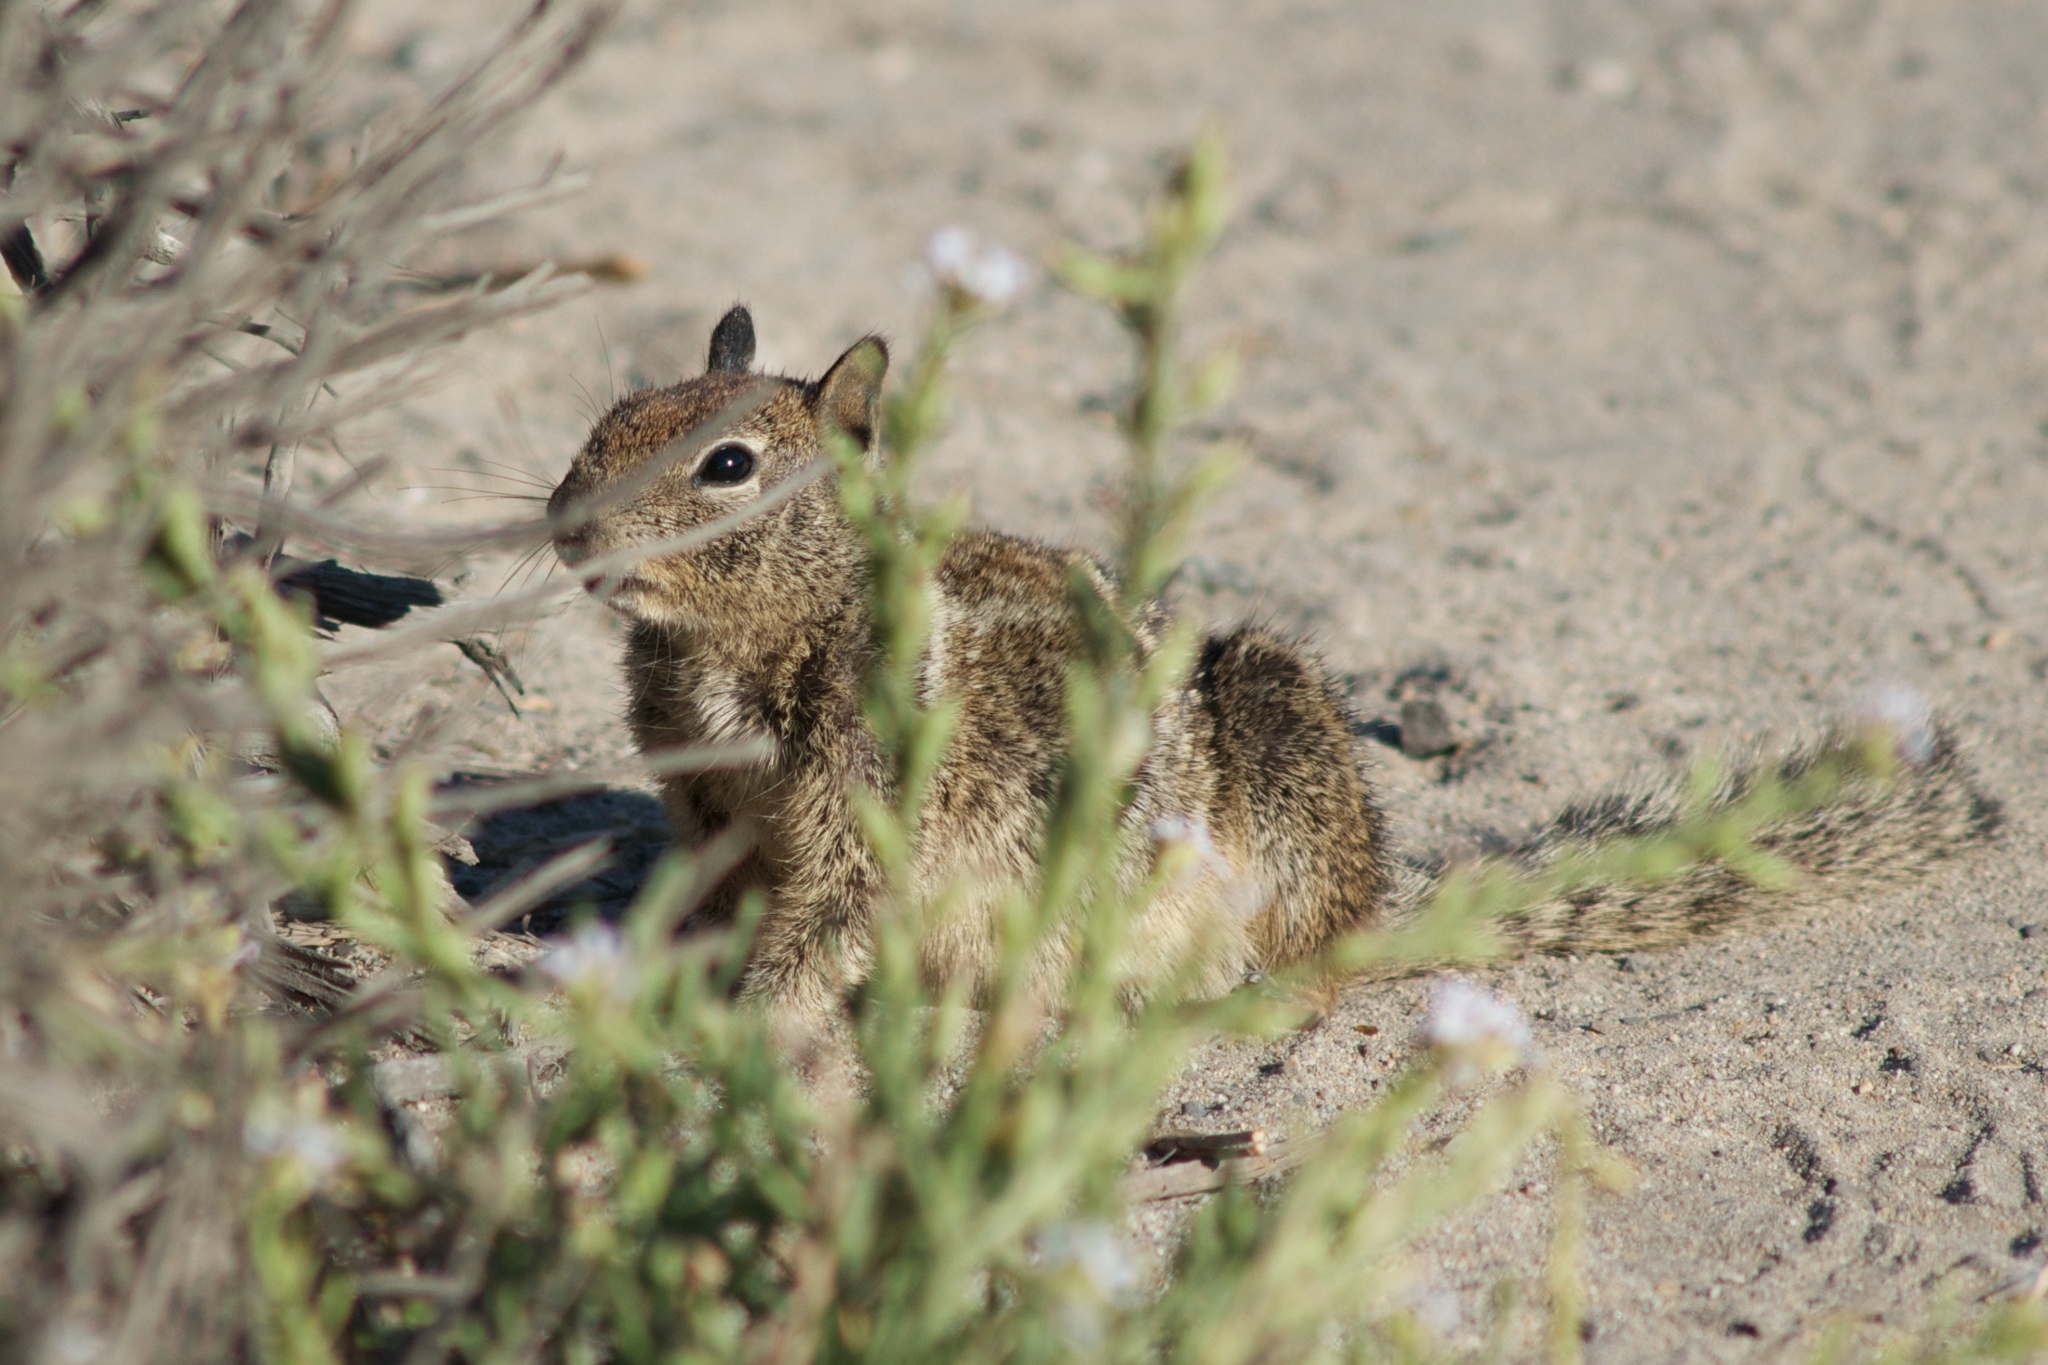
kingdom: Animalia
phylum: Chordata
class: Mammalia
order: Rodentia
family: Sciuridae
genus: Otospermophilus
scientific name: Otospermophilus beecheyi
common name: California ground squirrel
